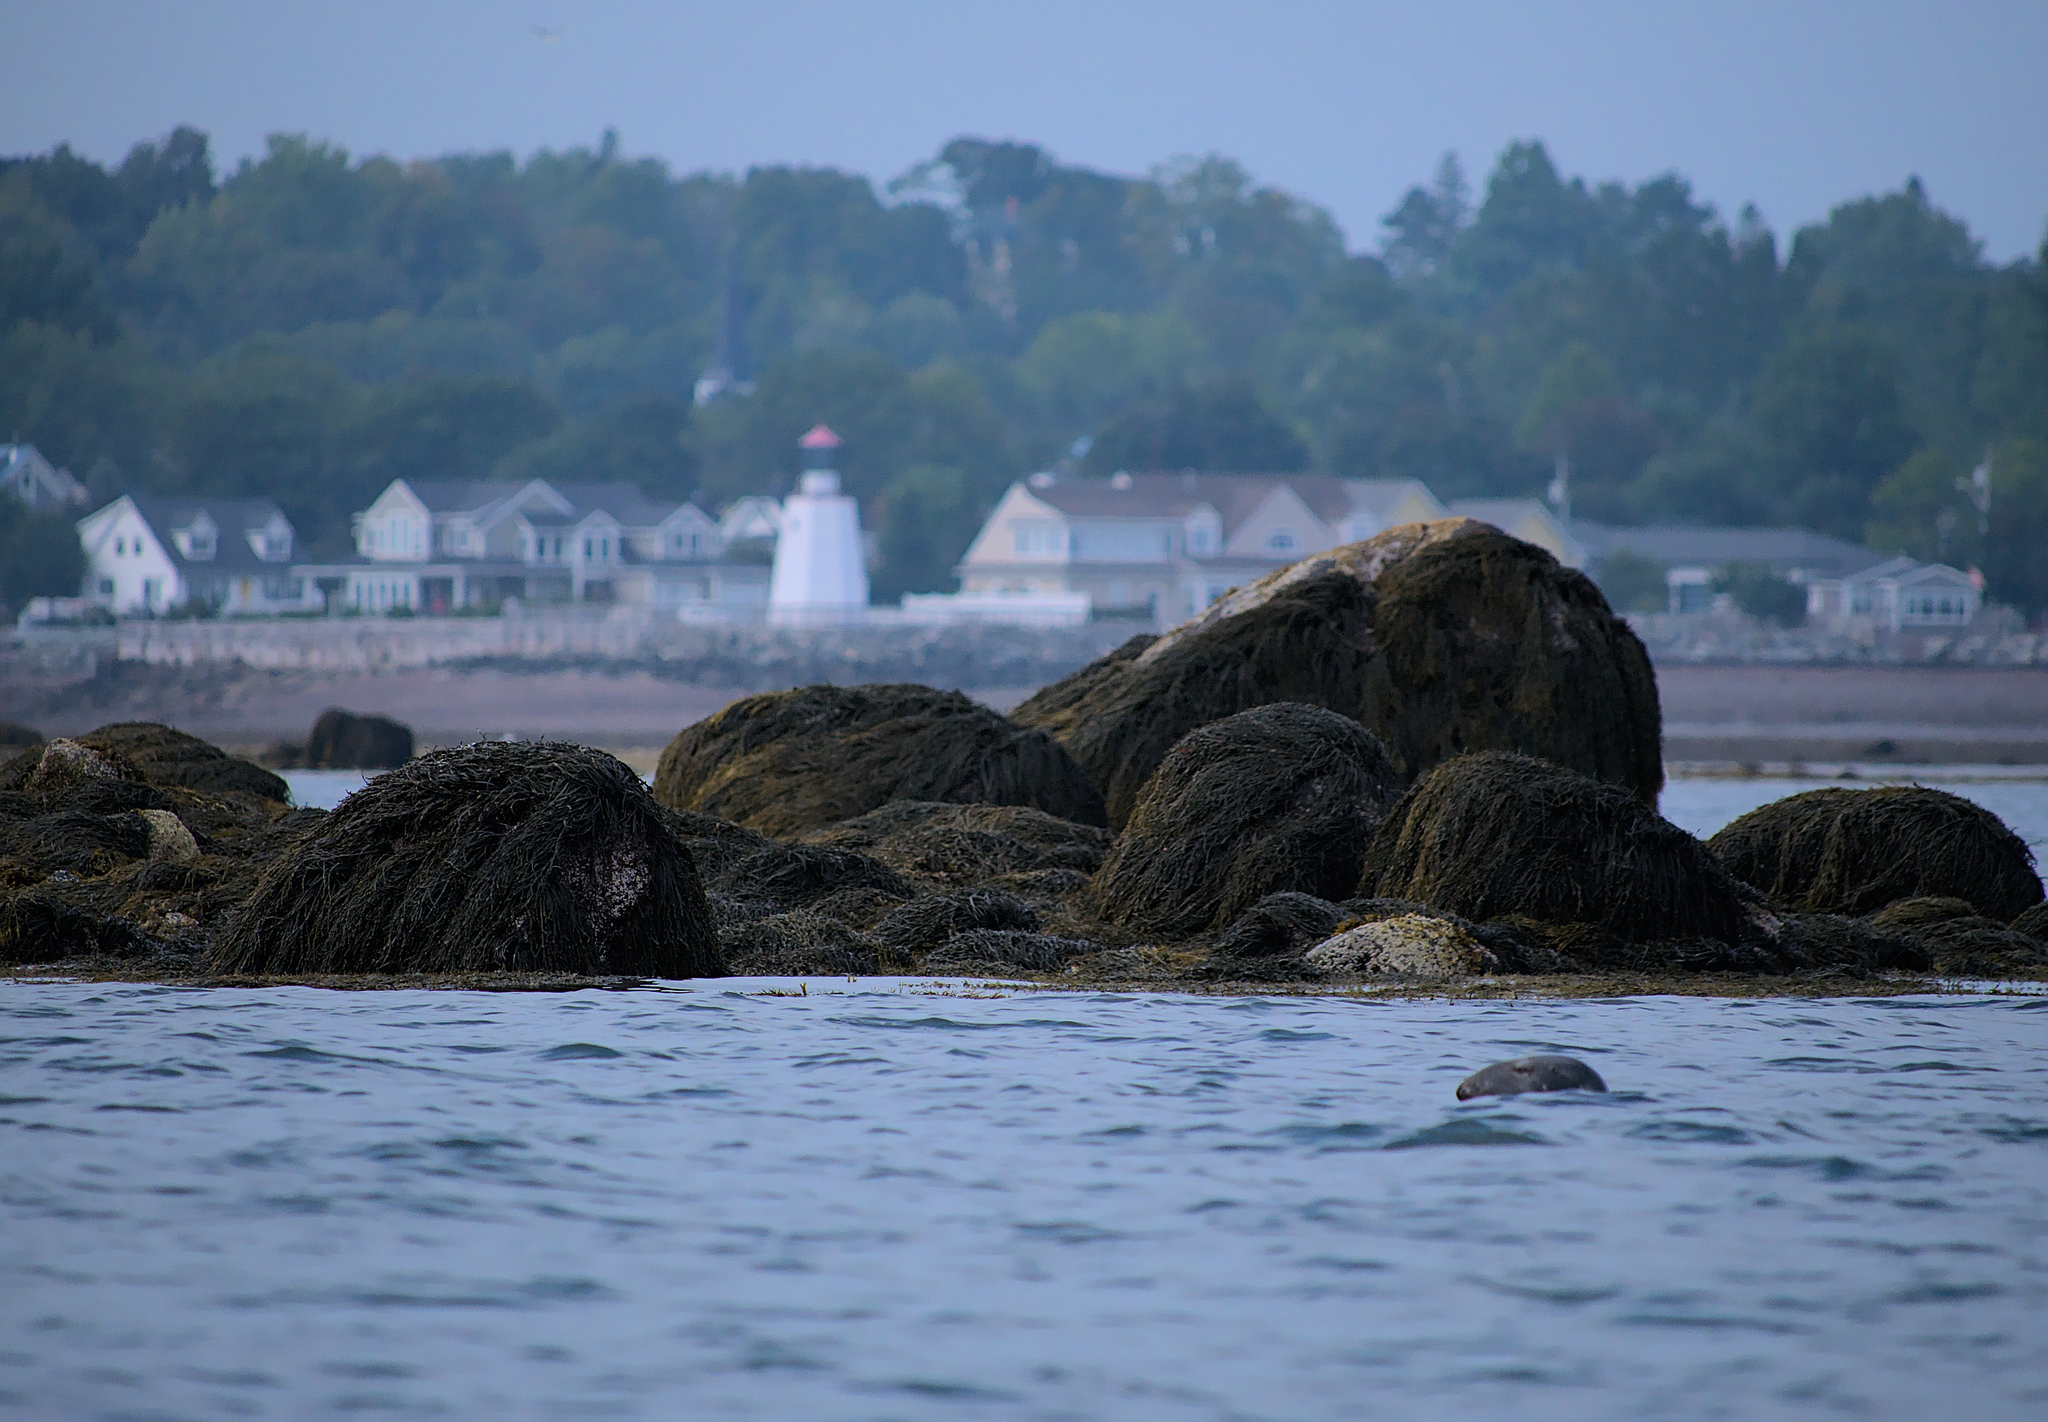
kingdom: Animalia
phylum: Chordata
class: Mammalia
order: Carnivora
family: Phocidae
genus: Halichoerus
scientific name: Halichoerus grypus
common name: Grey seal
